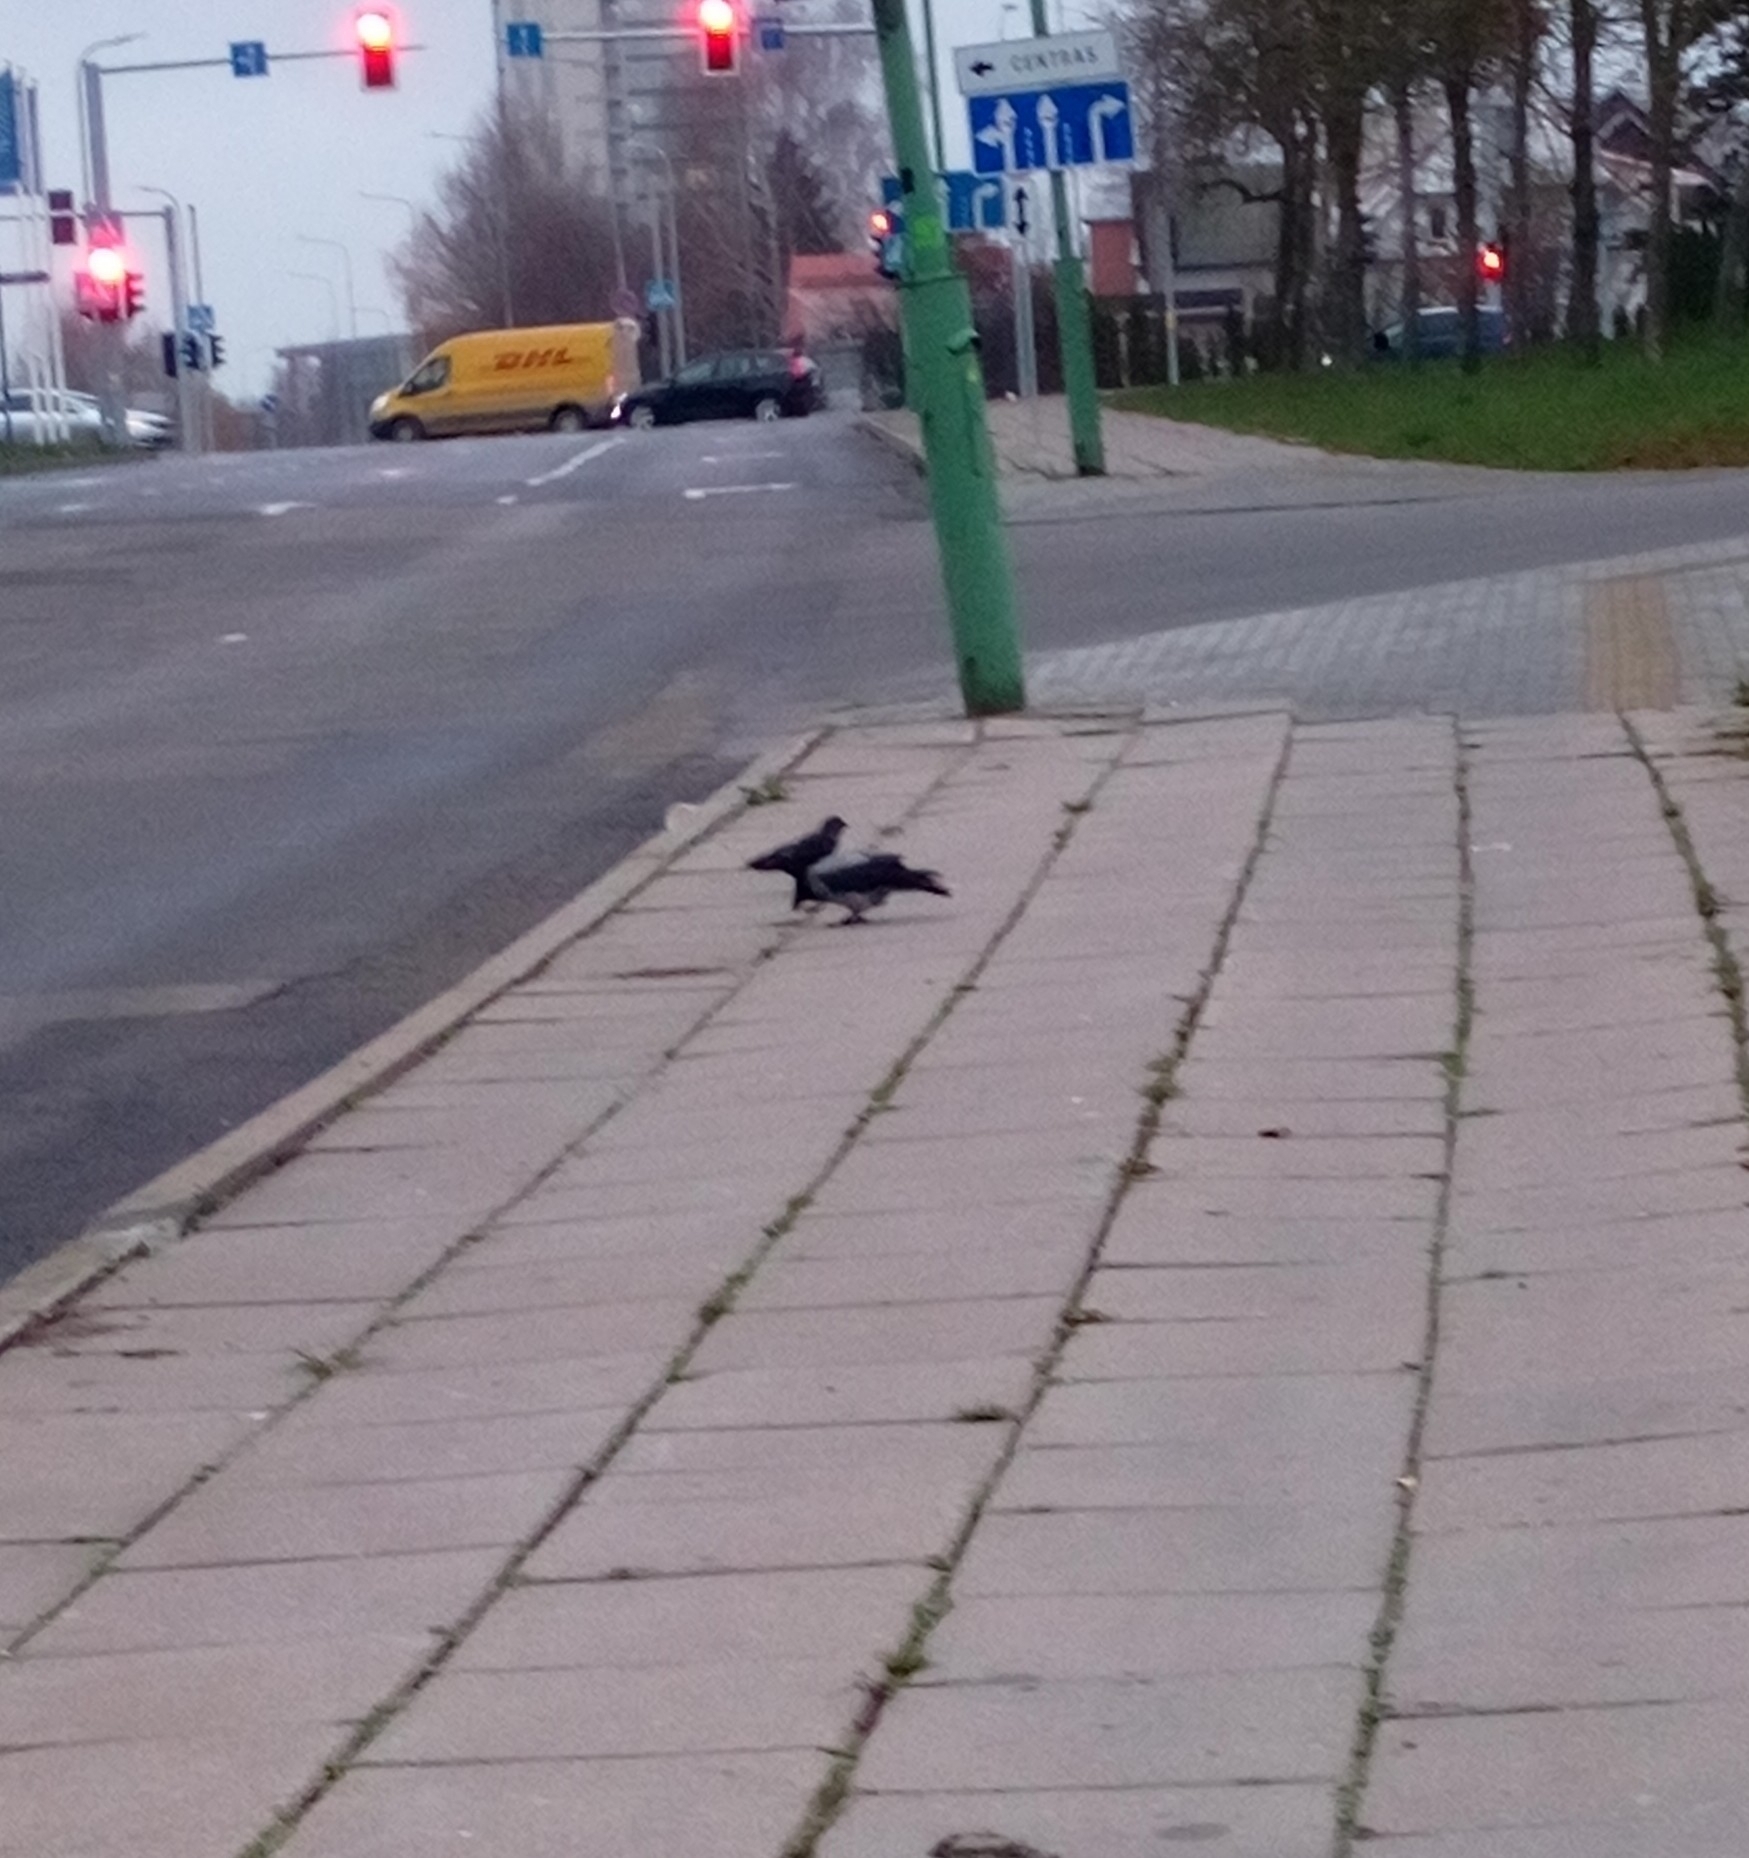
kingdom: Animalia
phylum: Chordata
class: Aves
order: Passeriformes
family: Corvidae
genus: Corvus
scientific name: Corvus cornix
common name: Hooded crow
